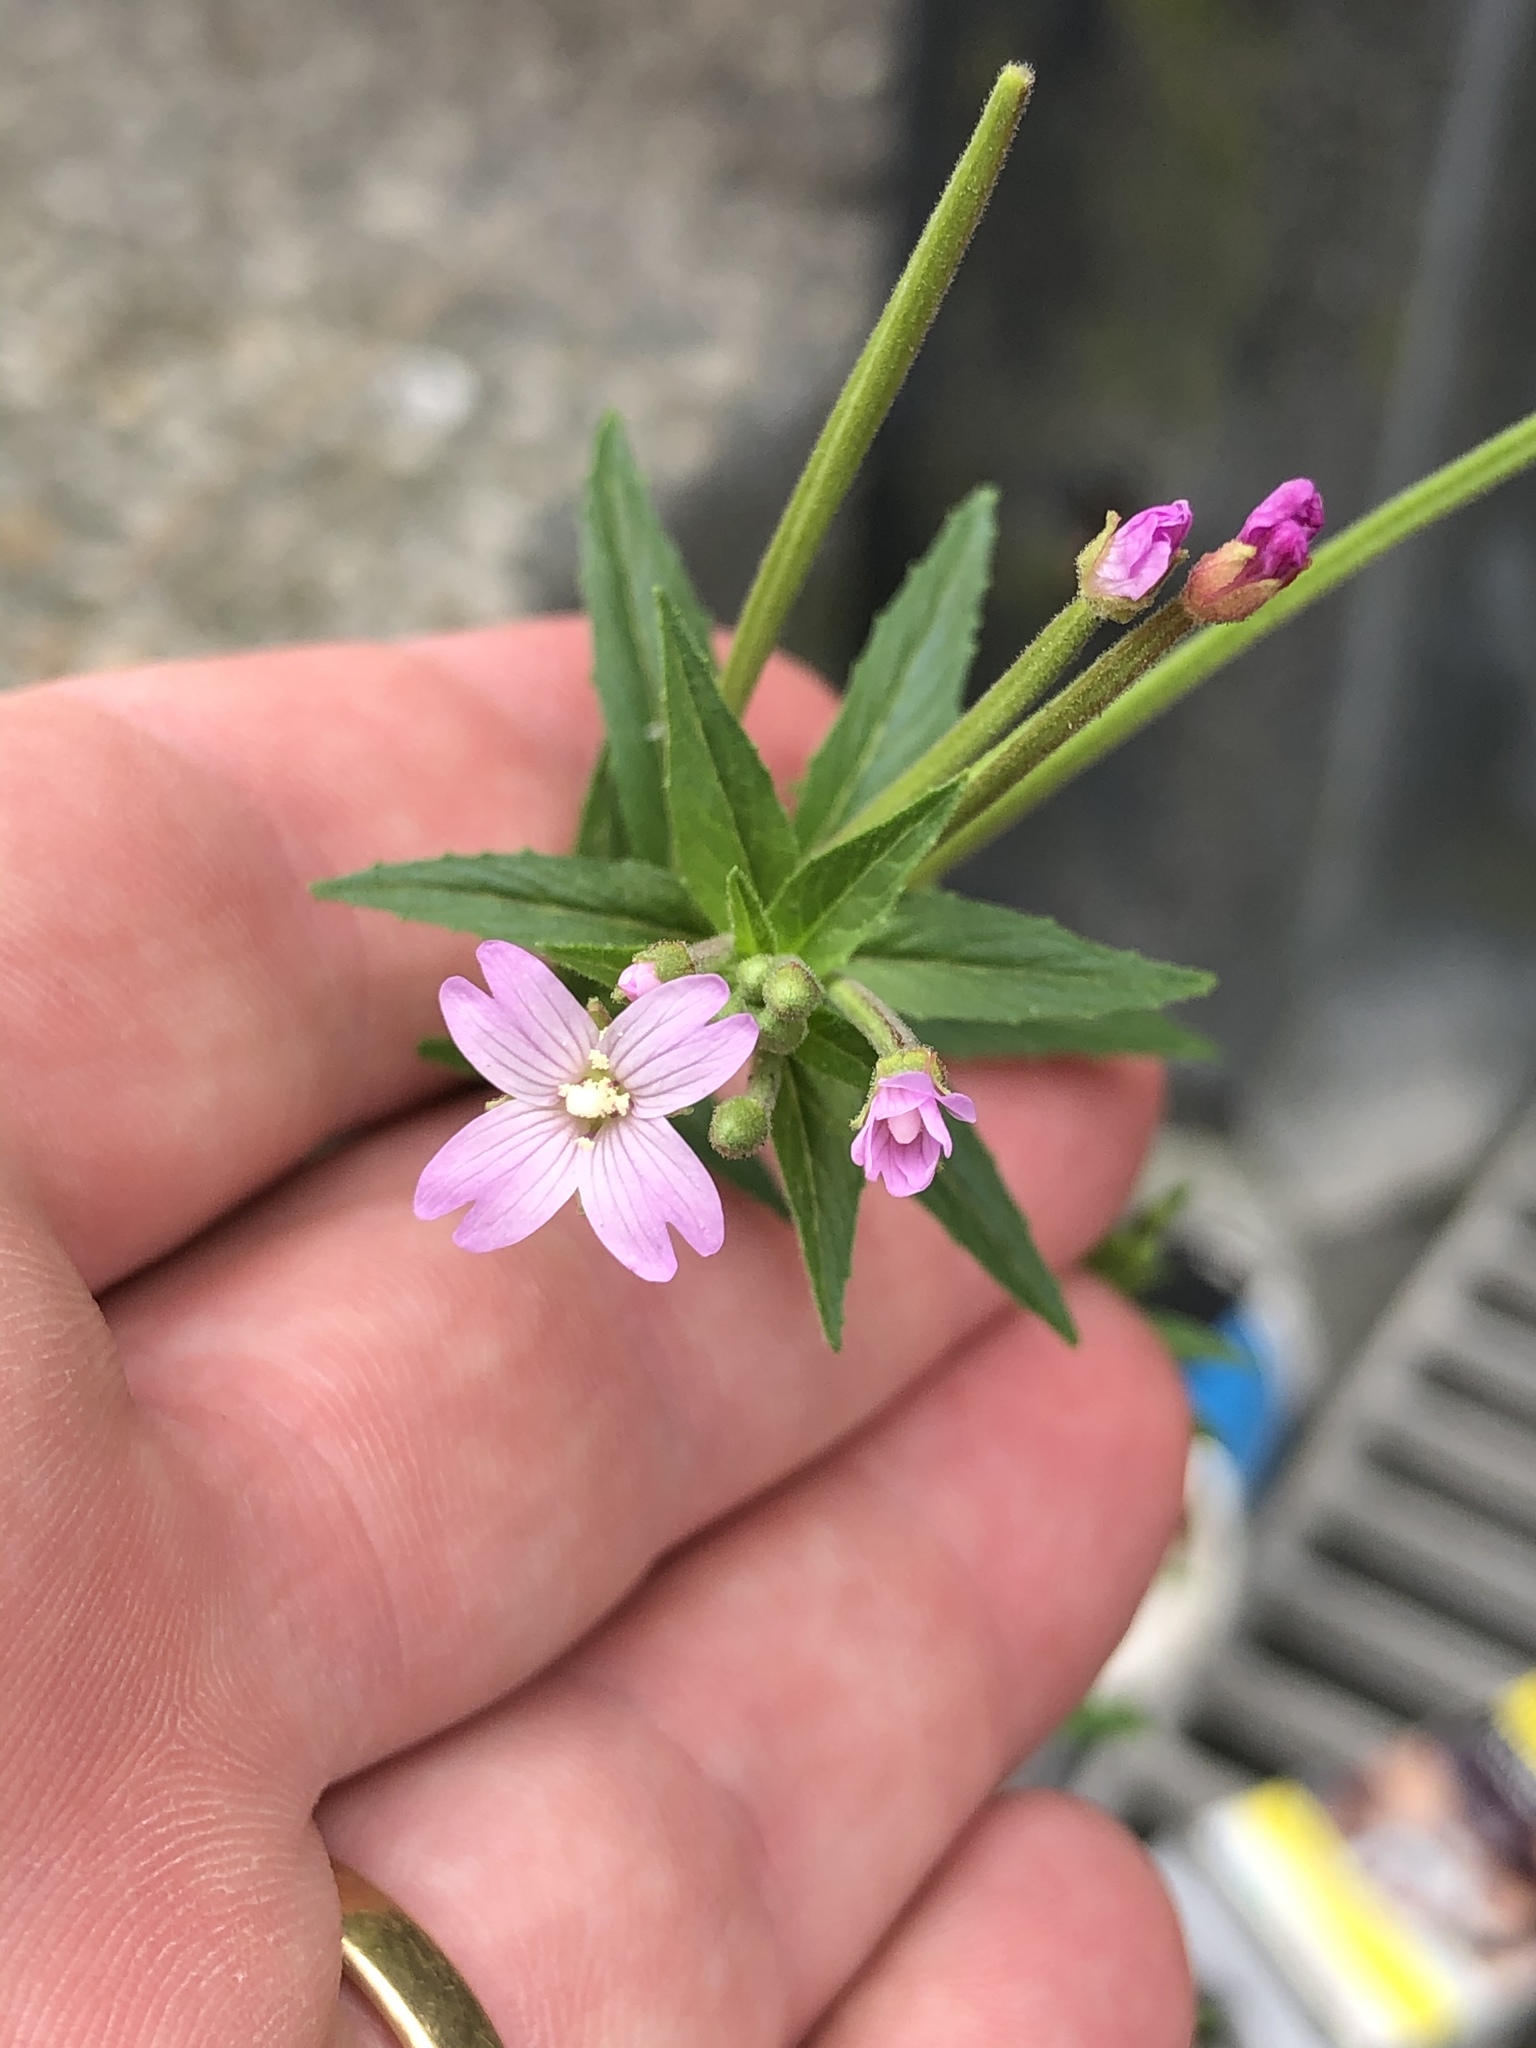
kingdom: Plantae
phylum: Tracheophyta
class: Magnoliopsida
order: Myrtales
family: Onagraceae
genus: Epilobium
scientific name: Epilobium ciliatum
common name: American willowherb
